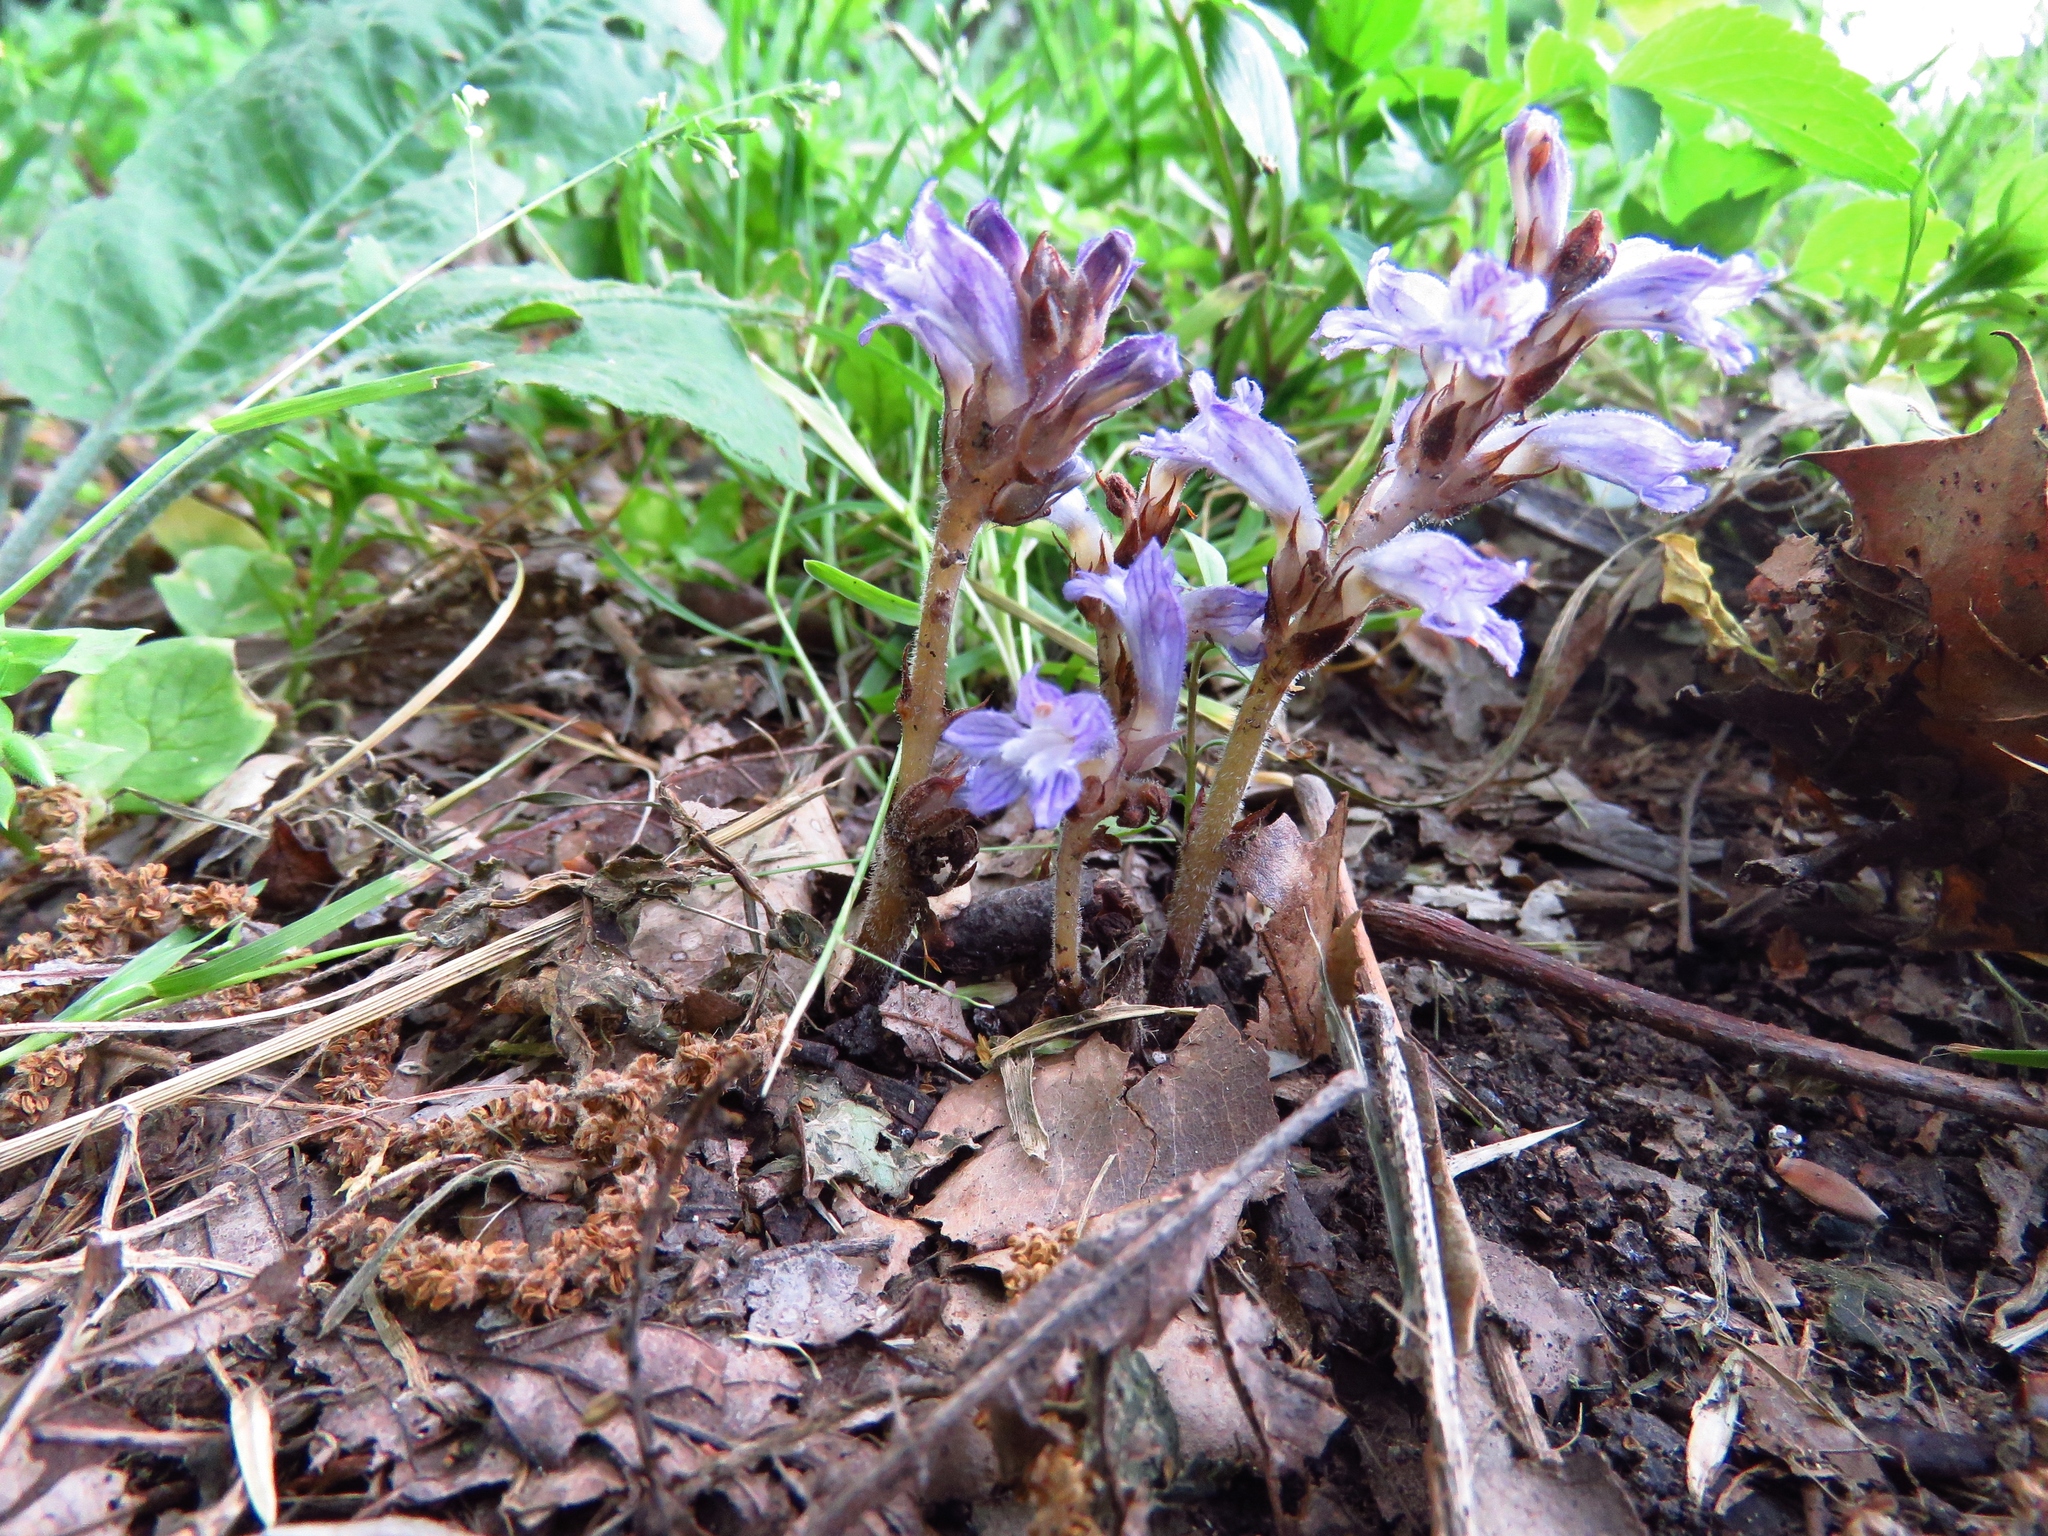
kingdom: Plantae
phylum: Tracheophyta
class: Magnoliopsida
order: Lamiales
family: Orobanchaceae
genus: Phelipanche
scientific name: Phelipanche ramosa
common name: Branched broomrape
